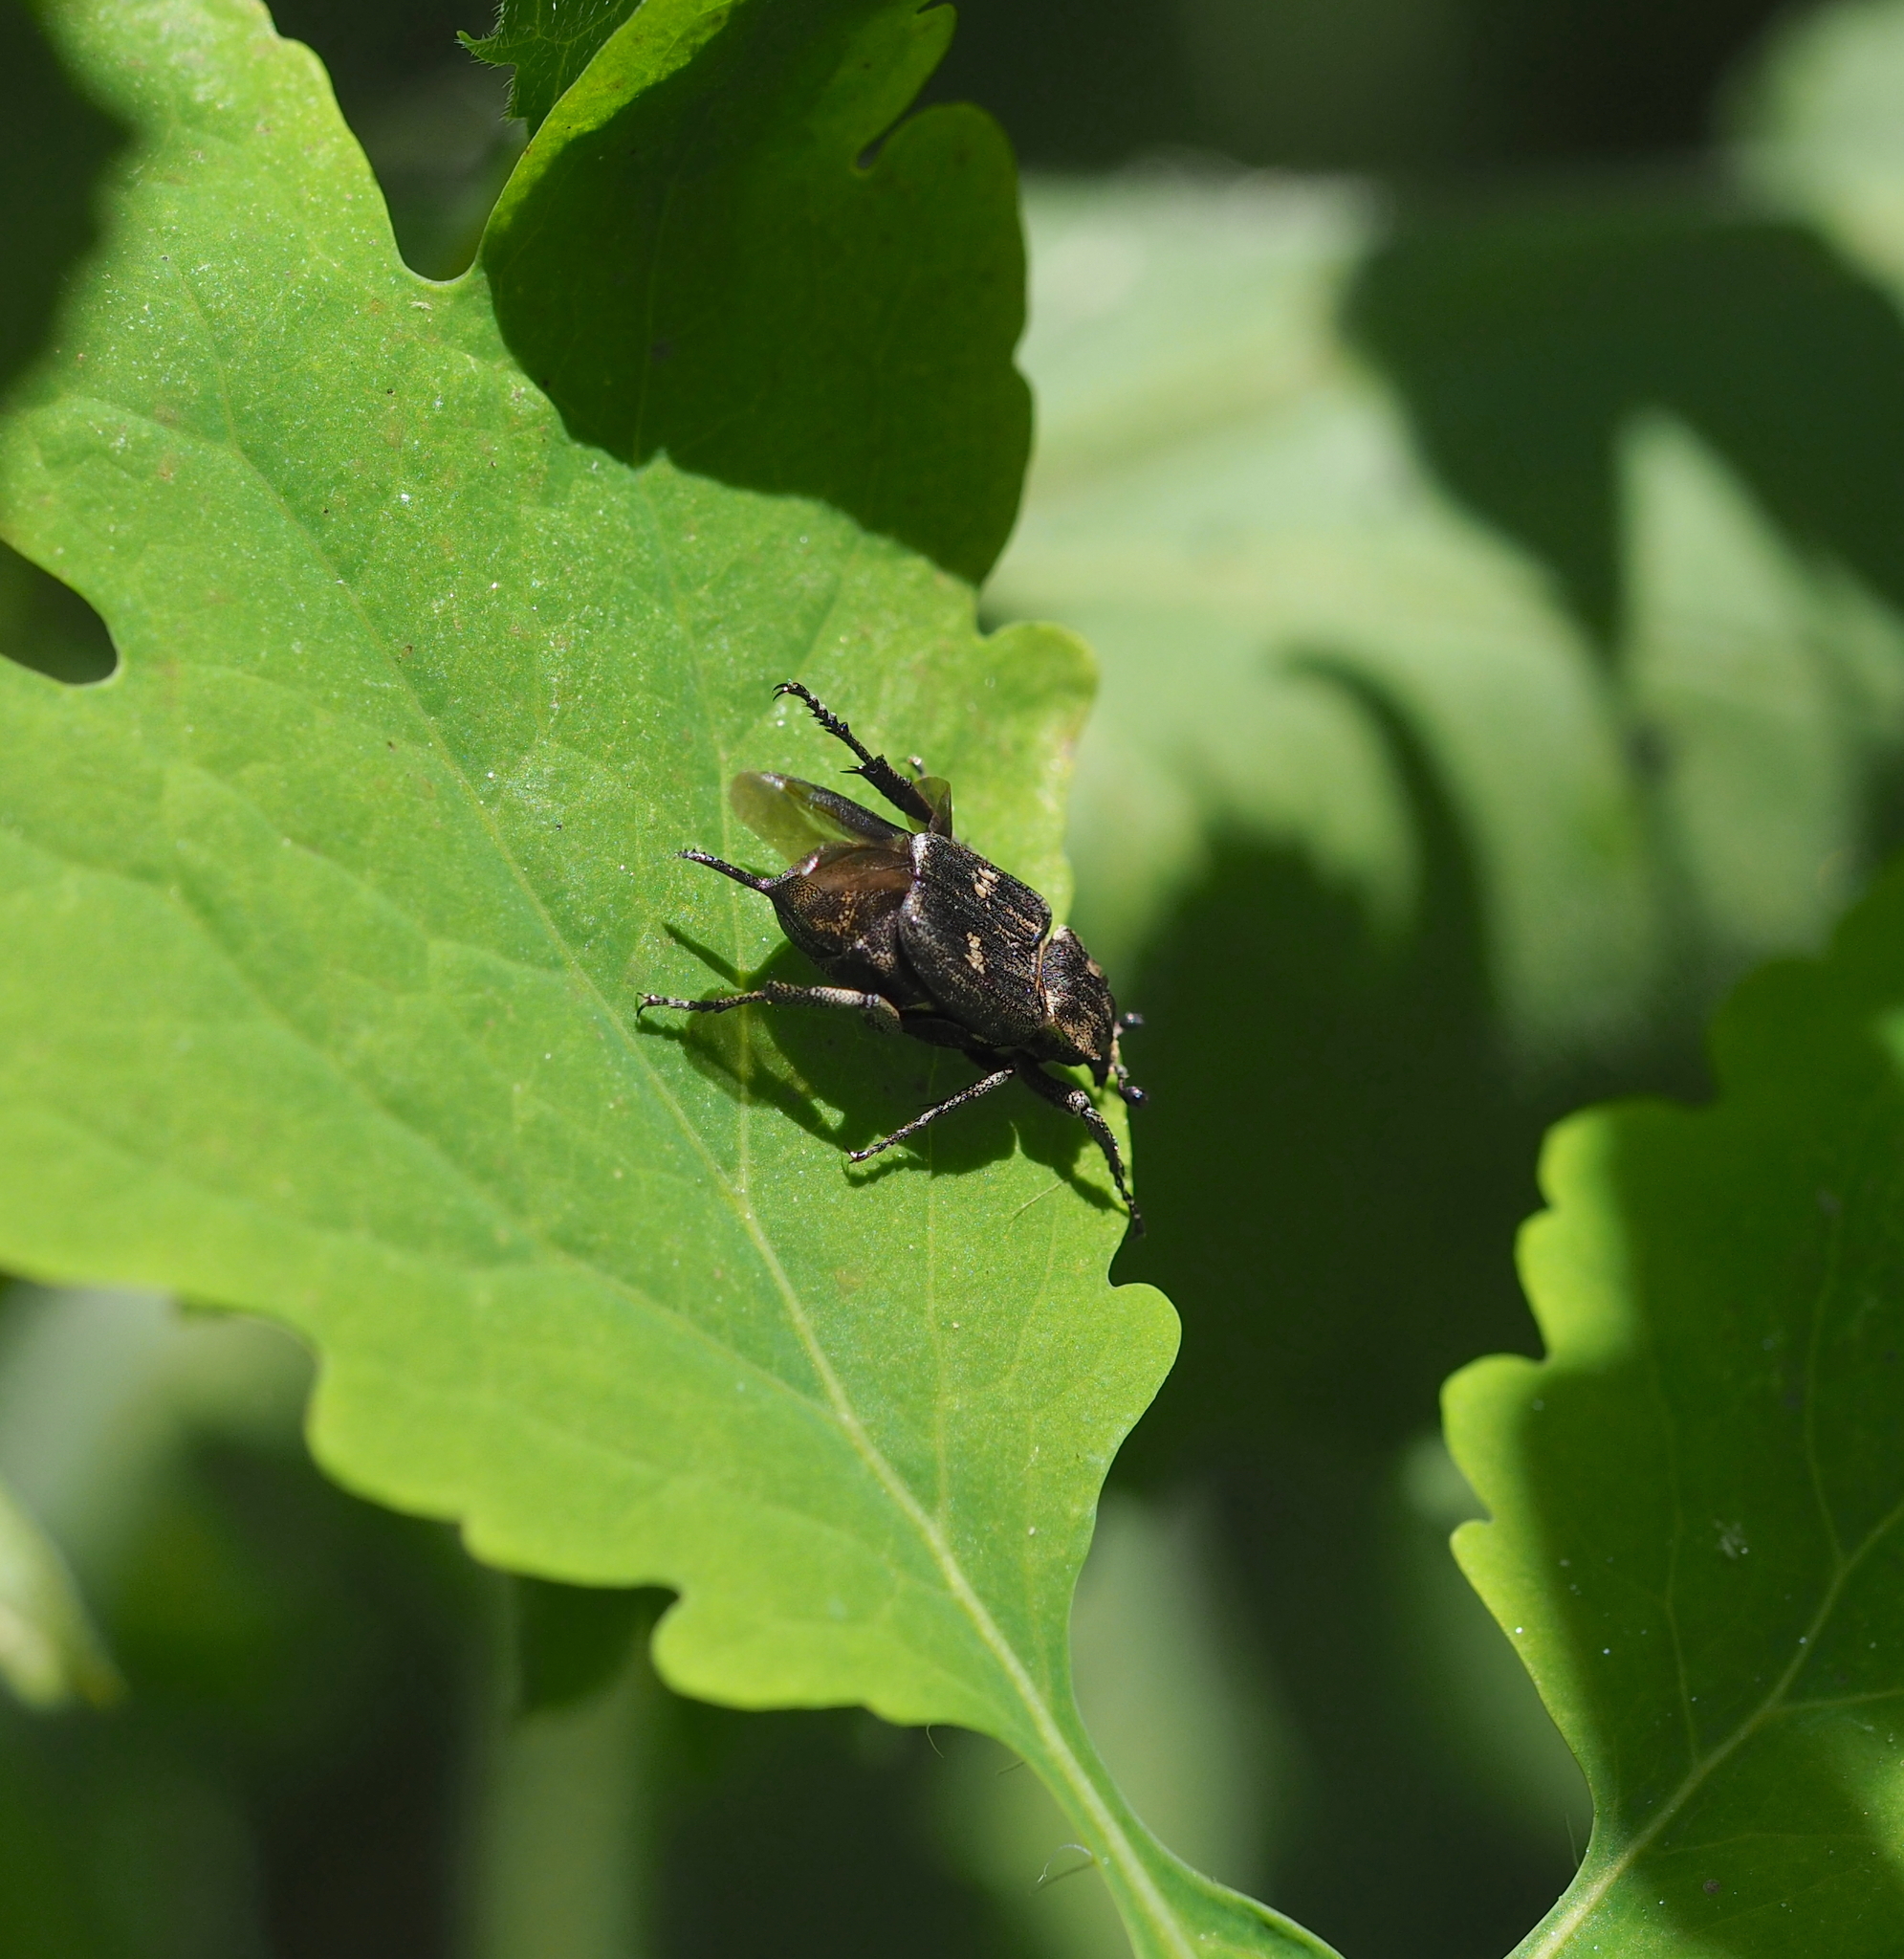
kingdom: Animalia
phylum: Arthropoda
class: Insecta
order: Coleoptera
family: Scarabaeidae
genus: Valgus
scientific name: Valgus hemipterus
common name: Bug flower chafer
